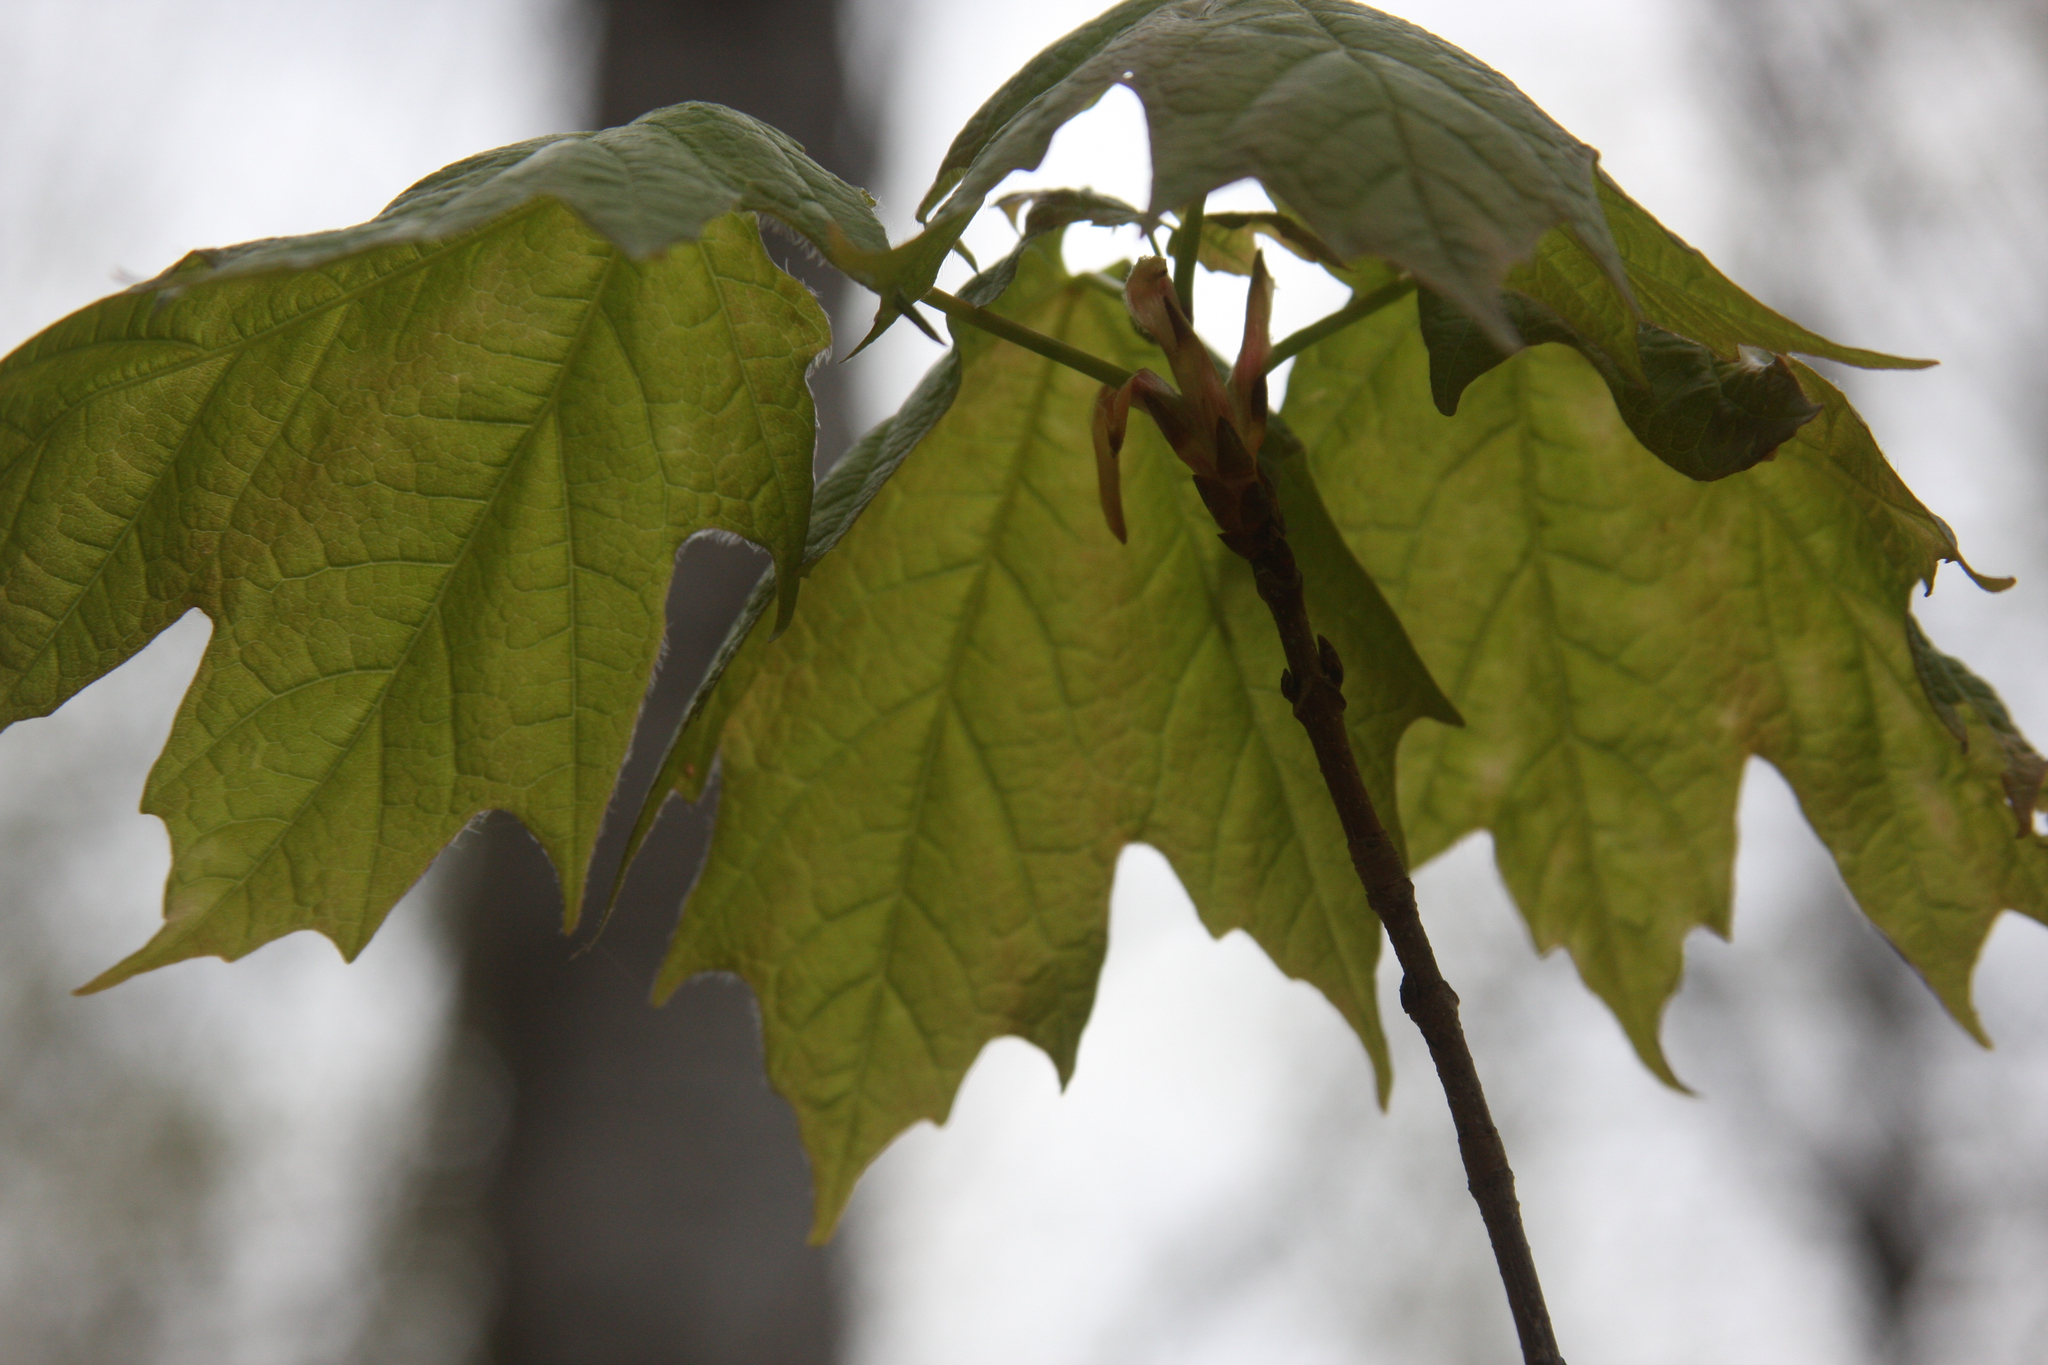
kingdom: Plantae
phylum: Tracheophyta
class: Magnoliopsida
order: Sapindales
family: Sapindaceae
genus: Acer
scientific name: Acer saccharum
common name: Sugar maple
